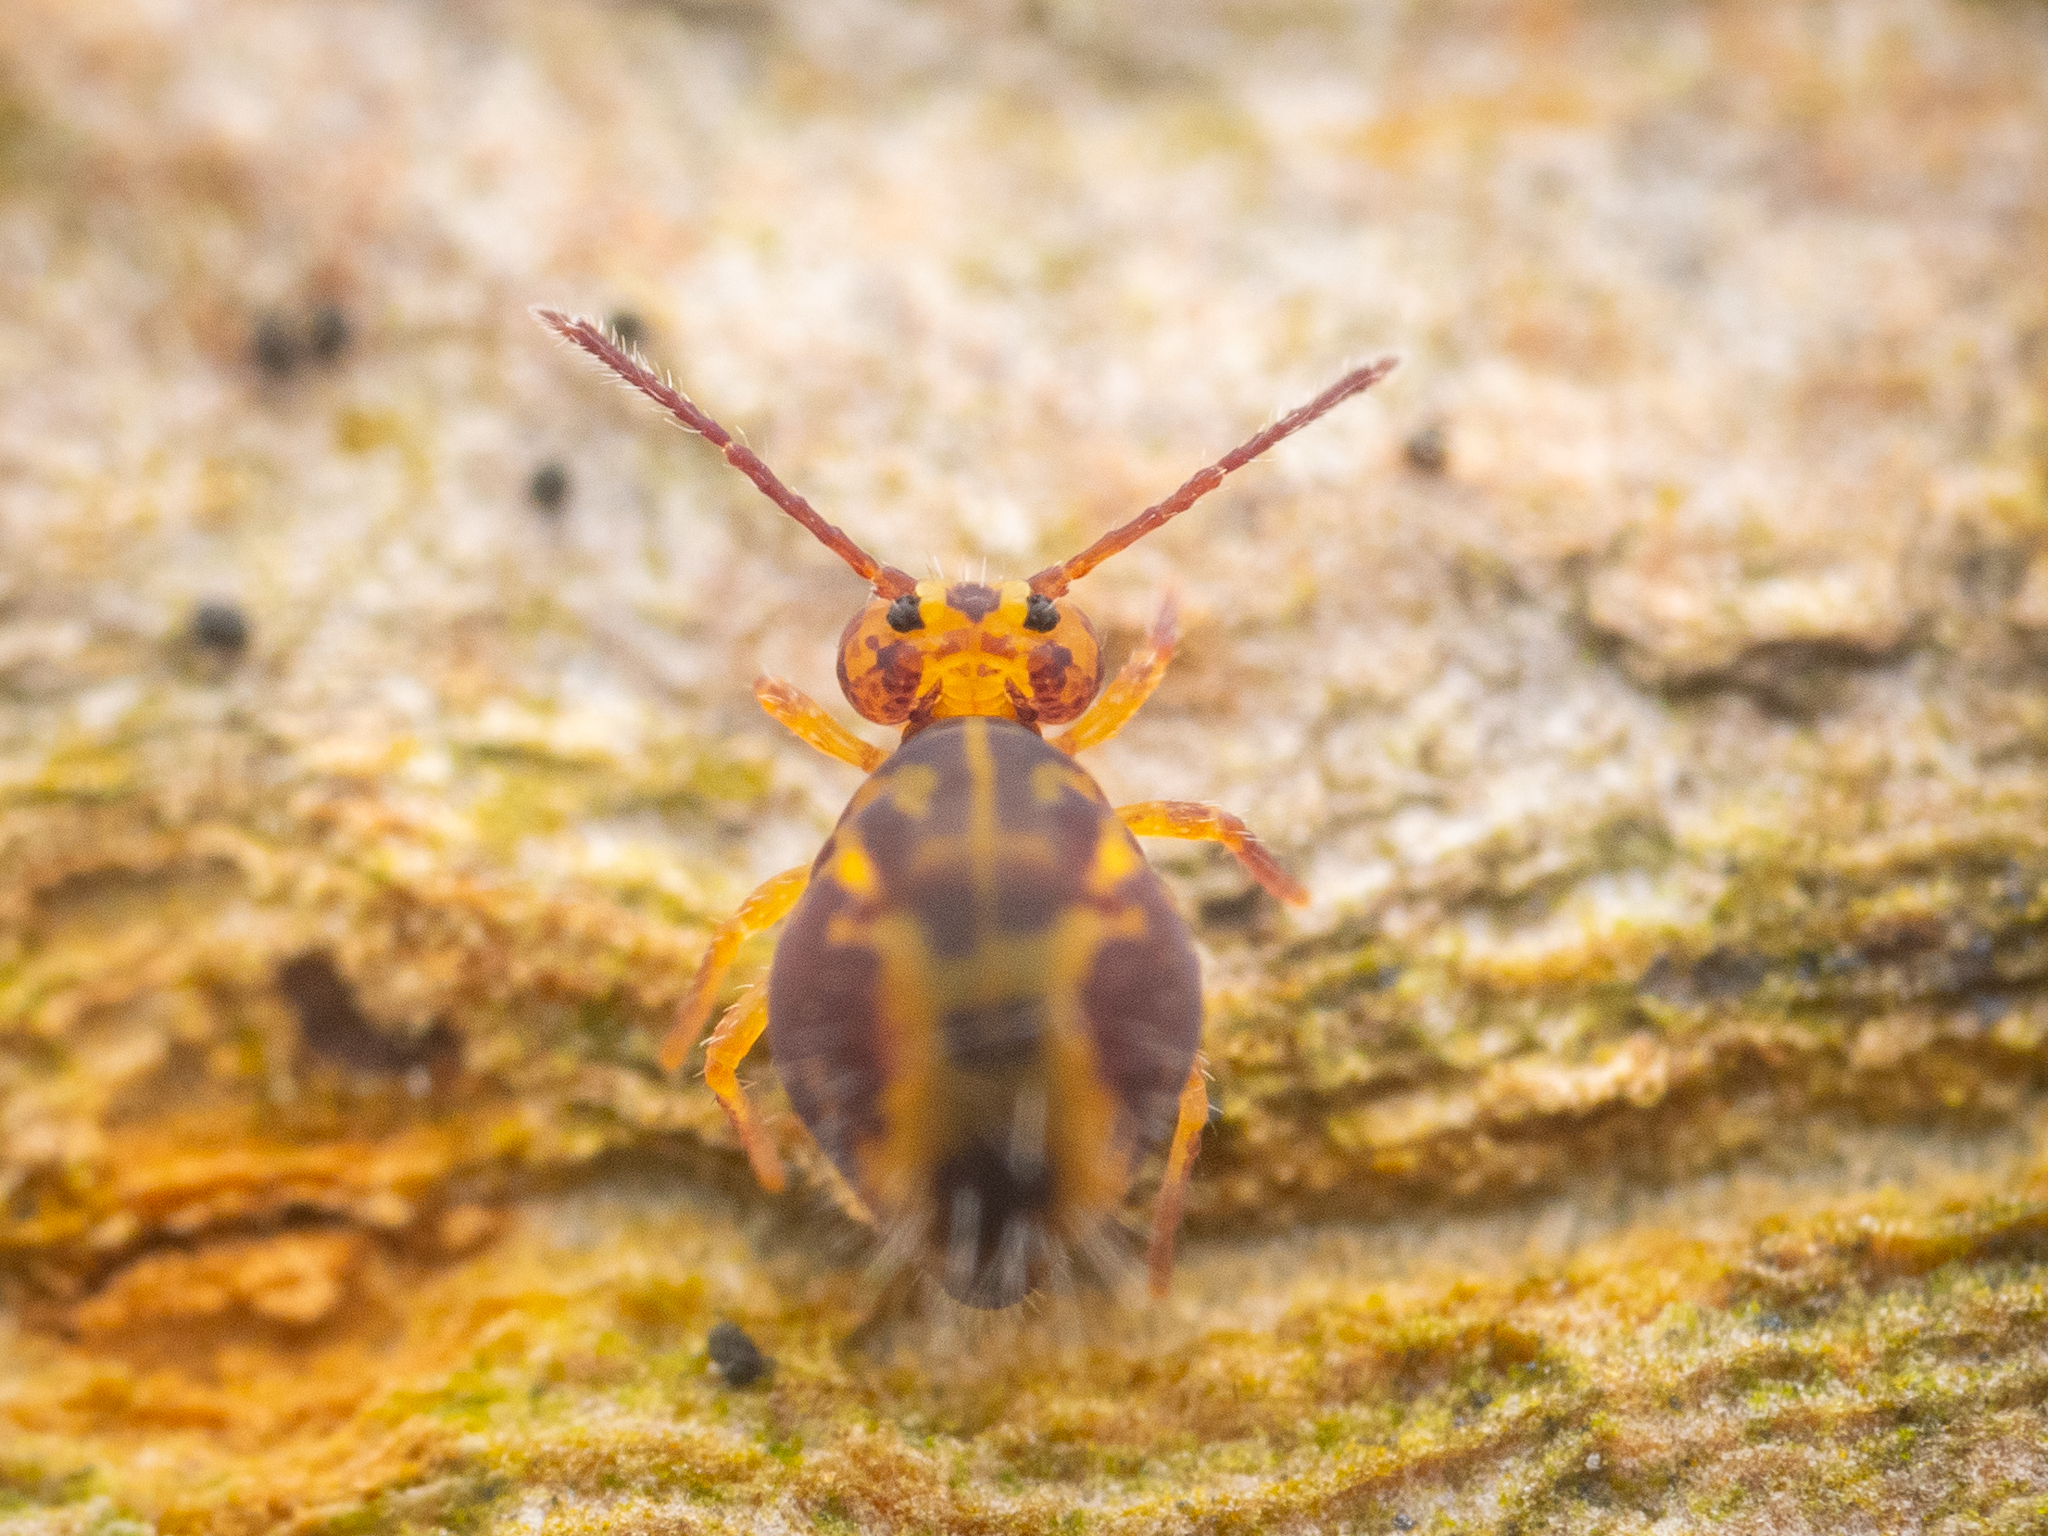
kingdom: Animalia
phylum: Arthropoda
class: Collembola
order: Symphypleona
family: Dicyrtomidae
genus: Dicyrtomina
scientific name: Dicyrtomina ornata
